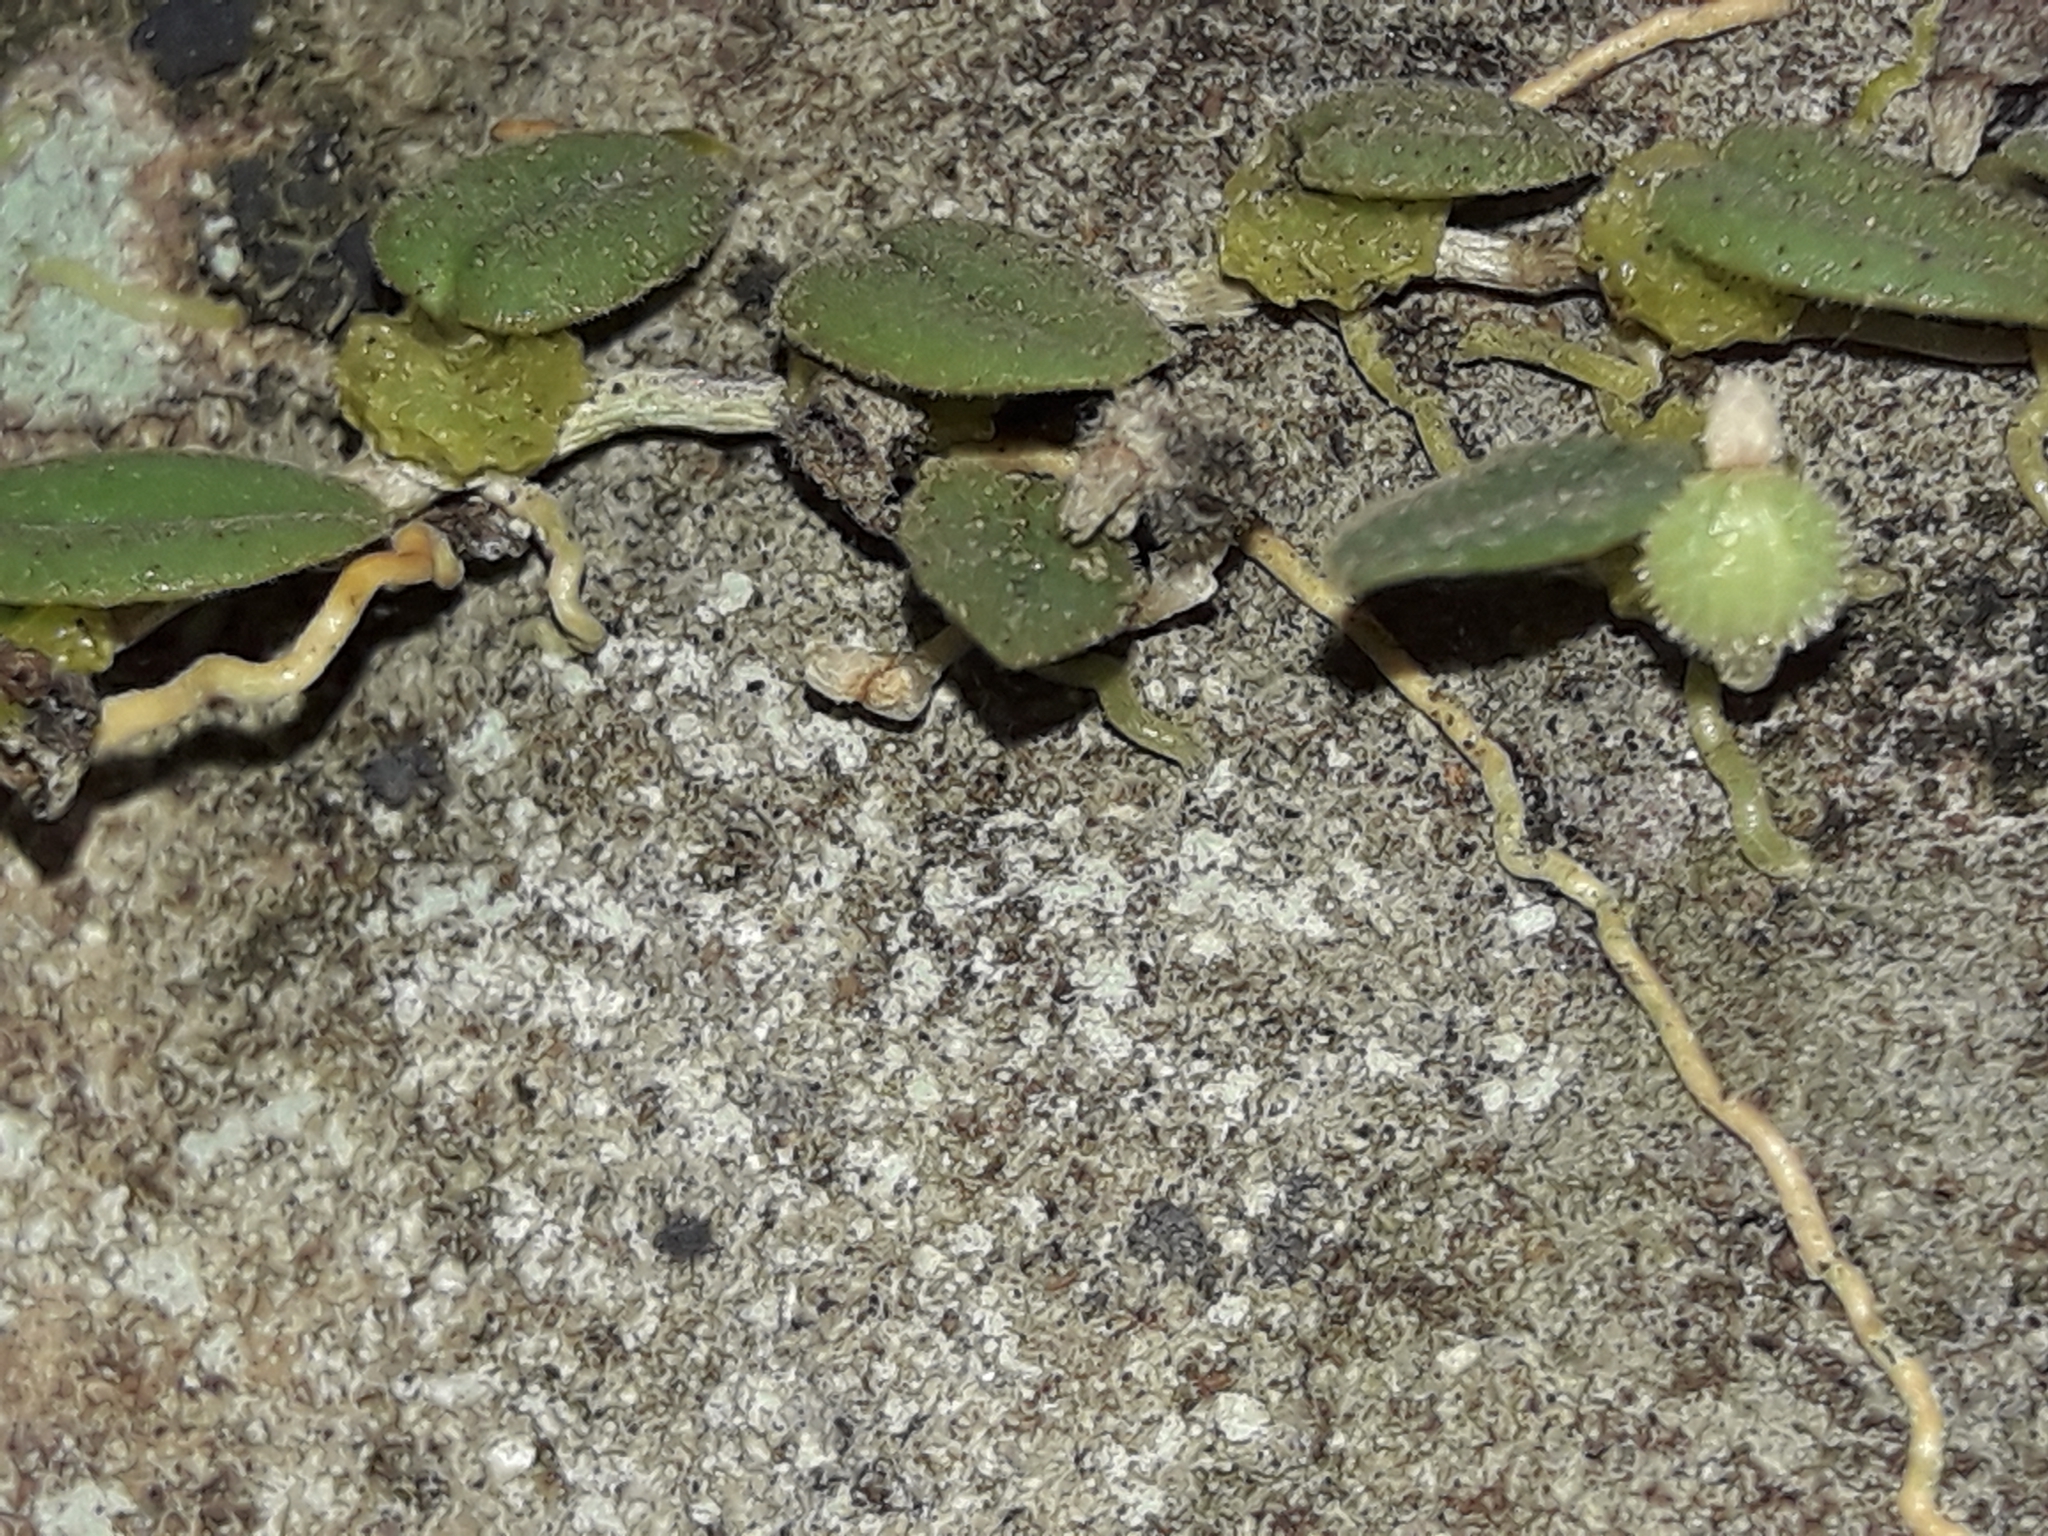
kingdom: Plantae
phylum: Tracheophyta
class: Liliopsida
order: Asparagales
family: Orchidaceae
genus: Bulbophyllum
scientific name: Bulbophyllum pygmaeum
